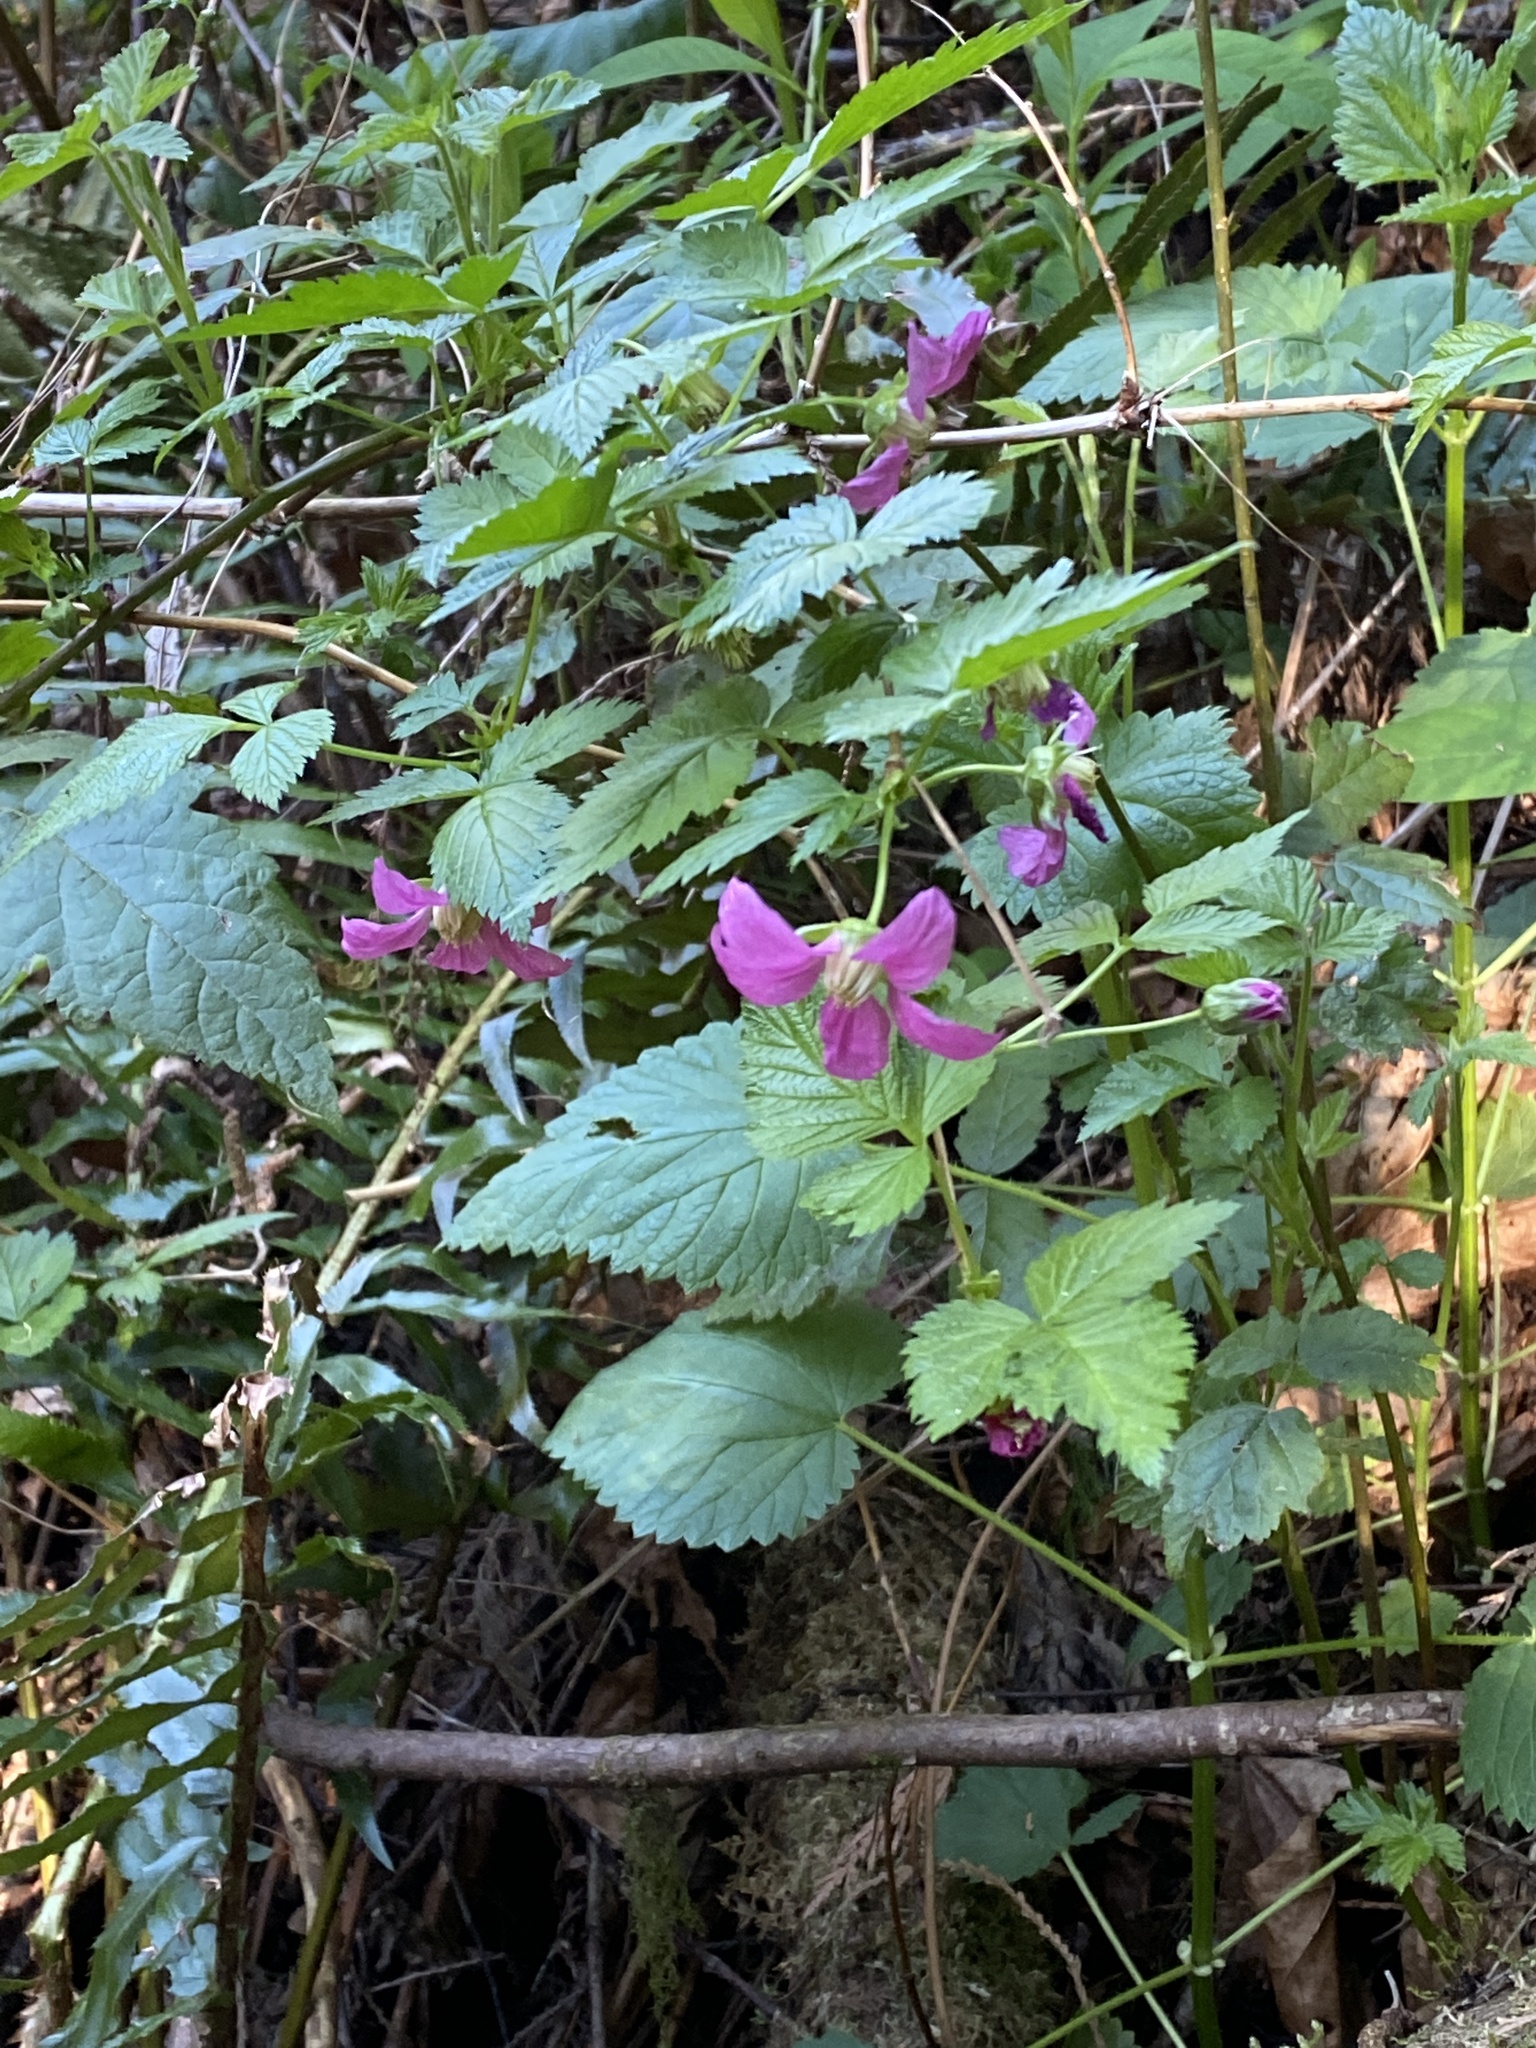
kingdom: Plantae
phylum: Tracheophyta
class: Magnoliopsida
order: Rosales
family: Rosaceae
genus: Rubus
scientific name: Rubus spectabilis
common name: Salmonberry
